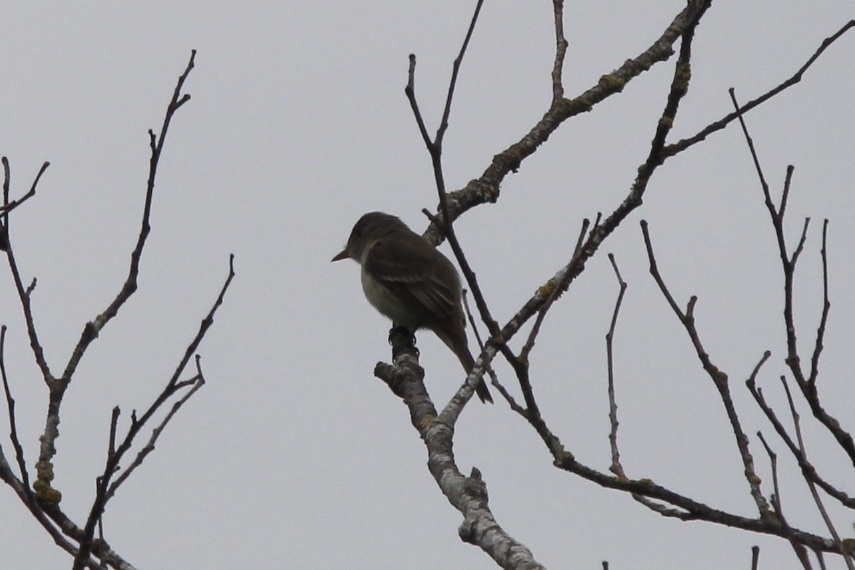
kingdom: Animalia
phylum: Chordata
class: Aves
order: Passeriformes
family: Tyrannidae
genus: Empidonax
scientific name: Empidonax traillii
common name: Willow flycatcher
